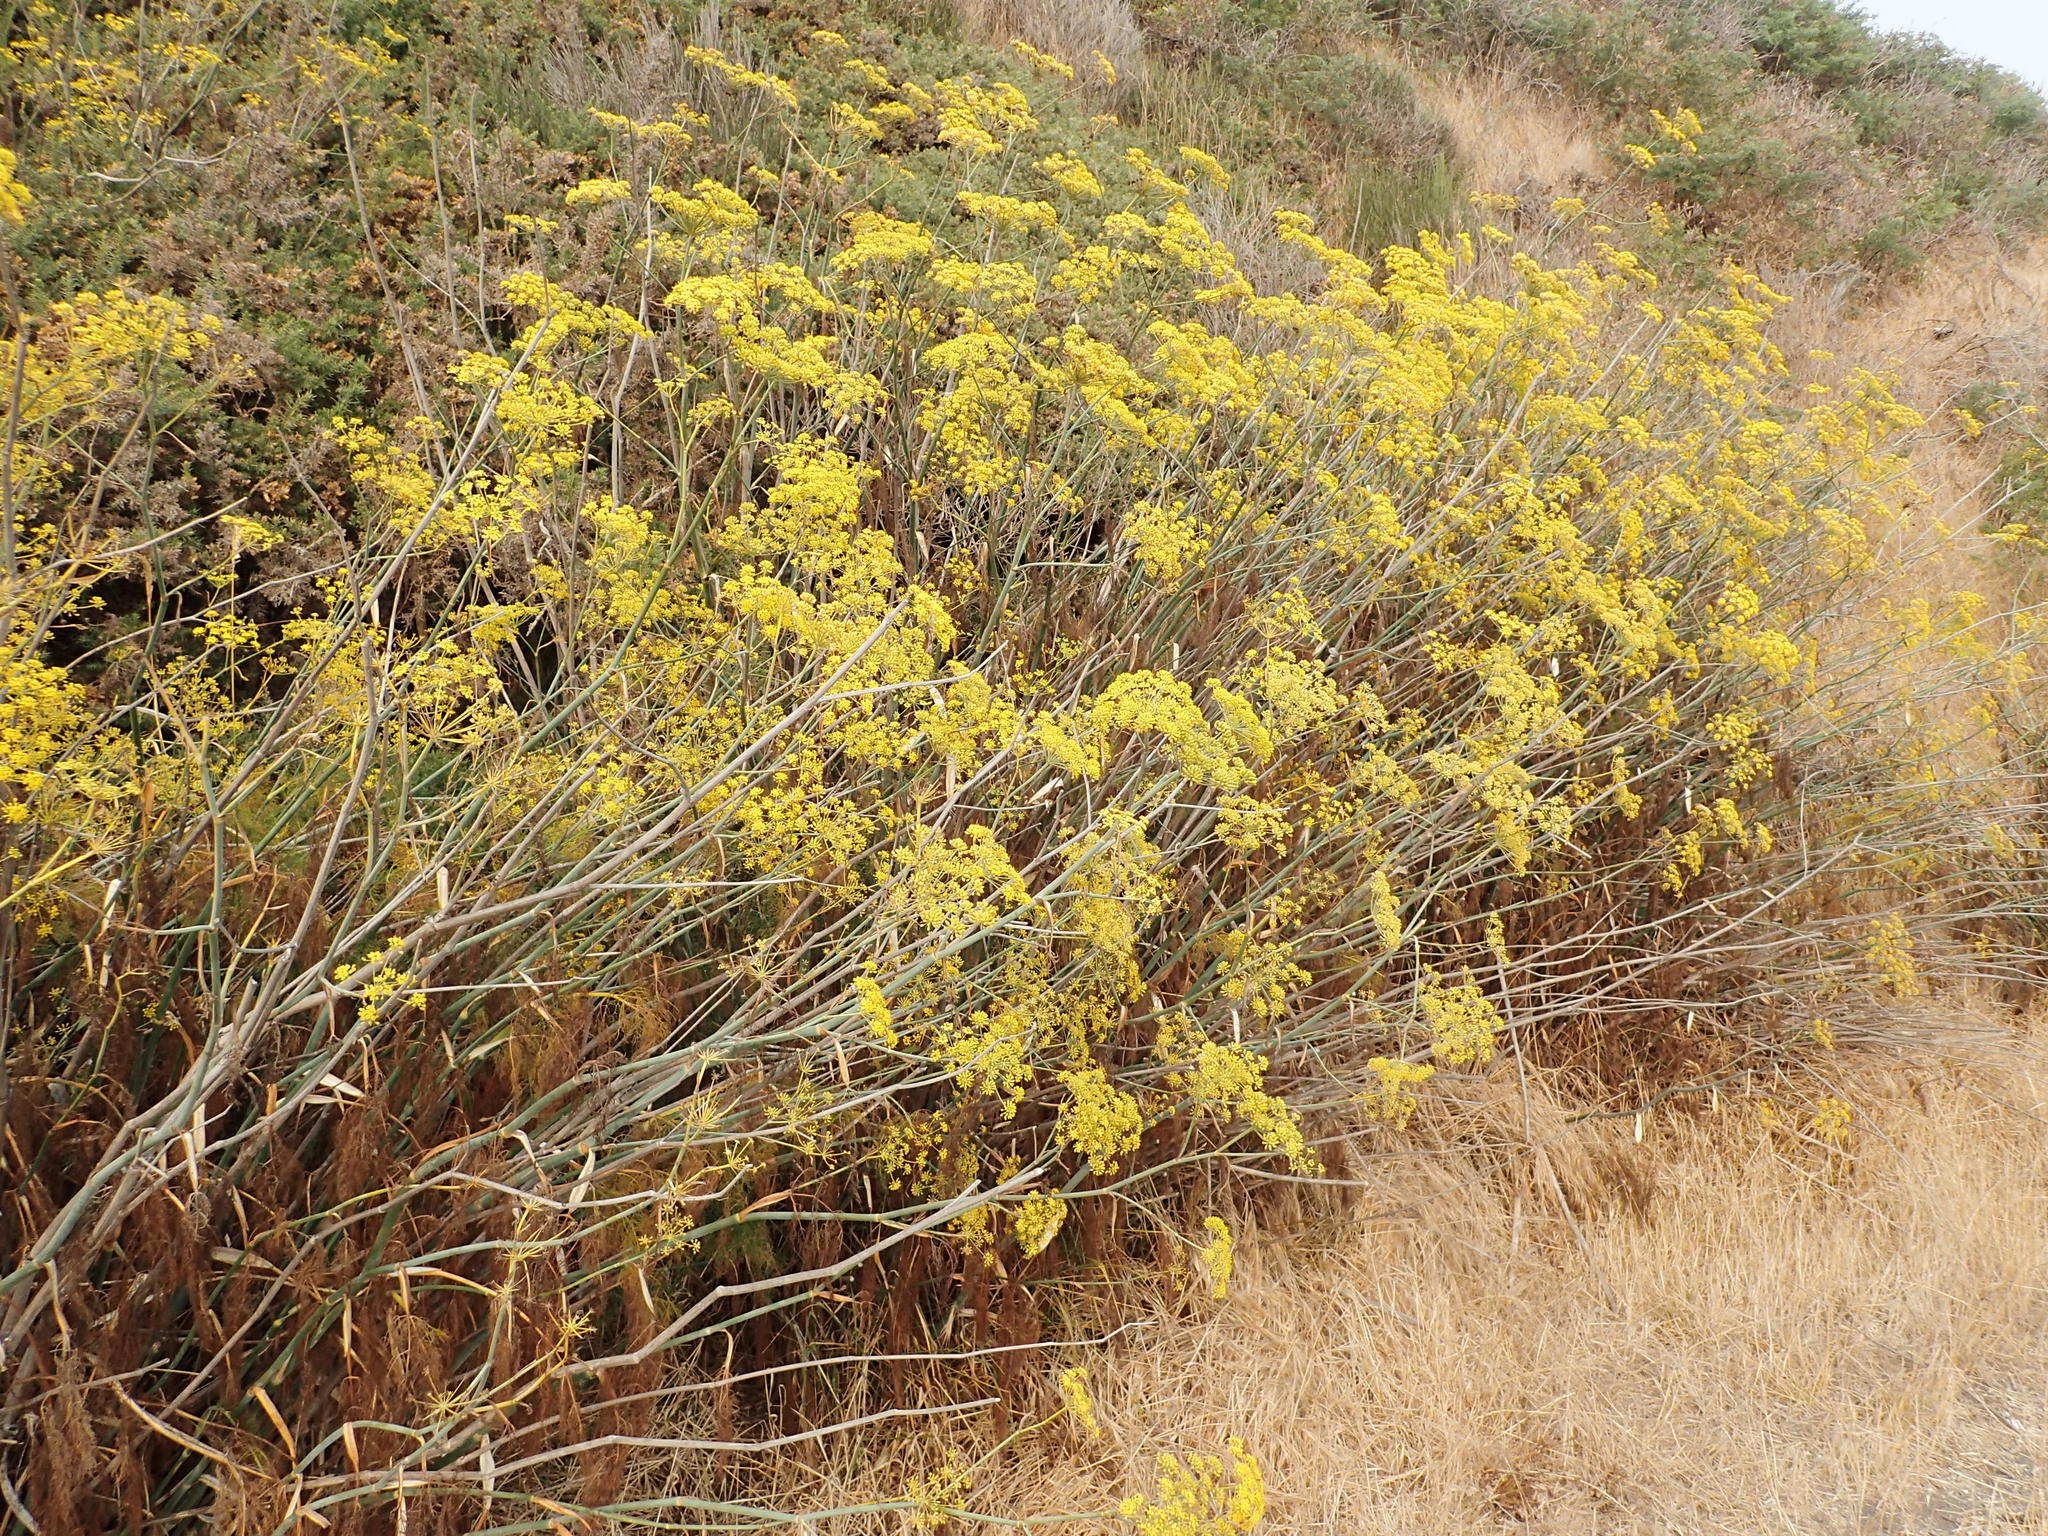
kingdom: Plantae
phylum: Tracheophyta
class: Magnoliopsida
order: Apiales
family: Apiaceae
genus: Foeniculum
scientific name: Foeniculum vulgare
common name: Fennel
